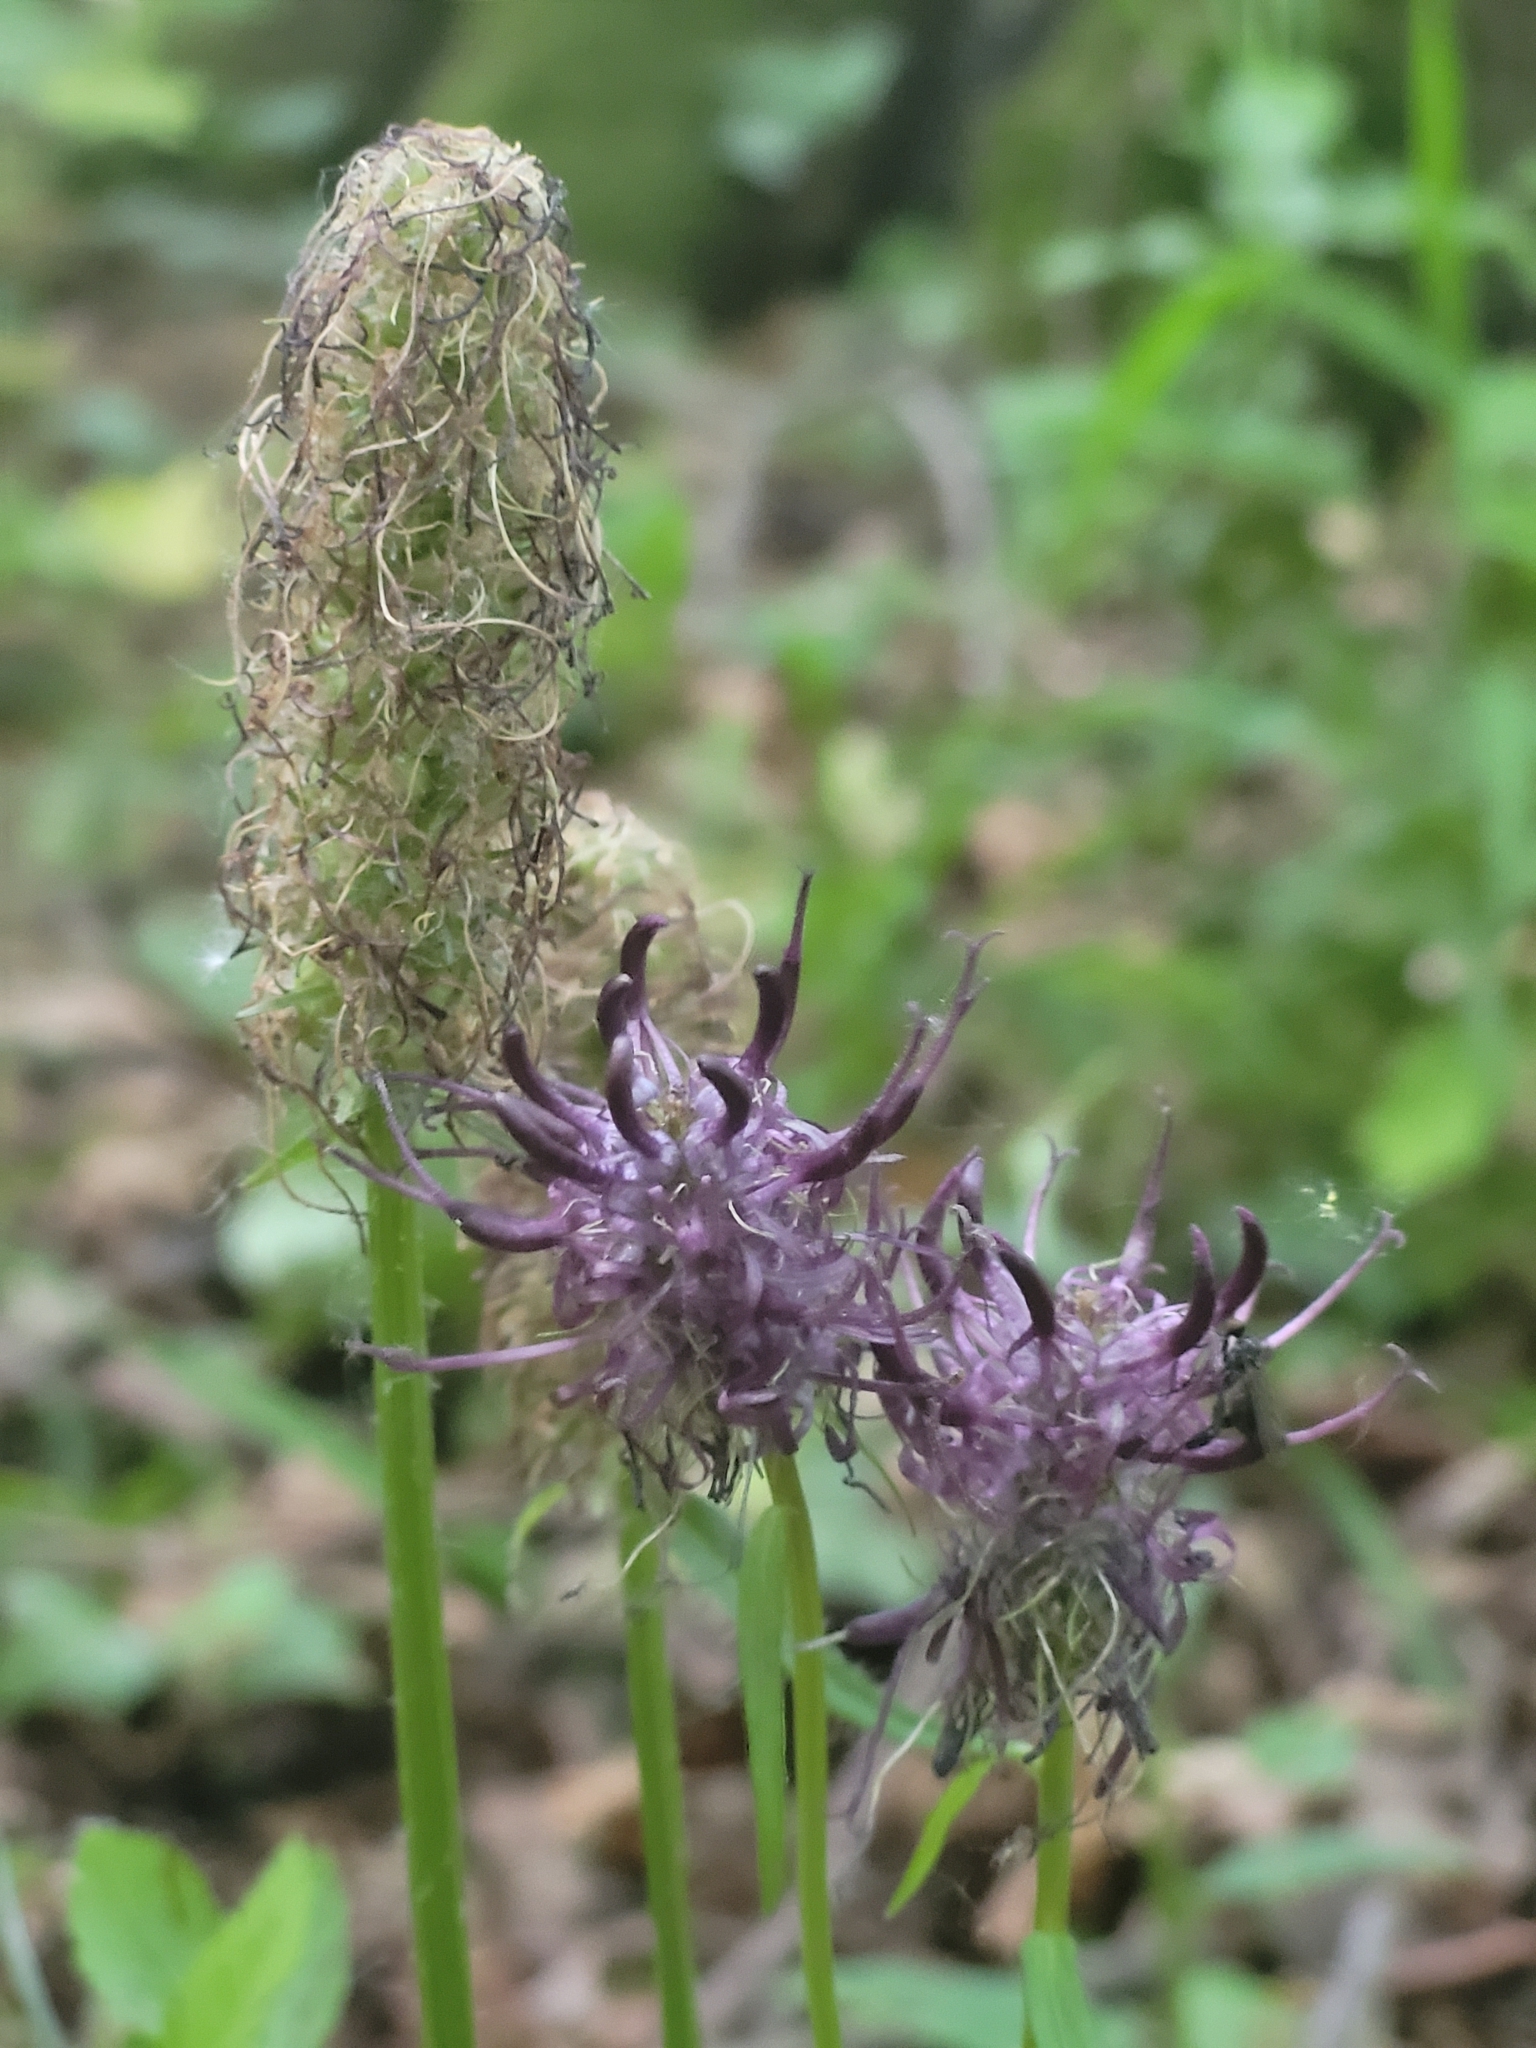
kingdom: Plantae
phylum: Tracheophyta
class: Magnoliopsida
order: Asterales
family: Campanulaceae
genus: Phyteuma
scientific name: Phyteuma nigrum
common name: Black rampion
